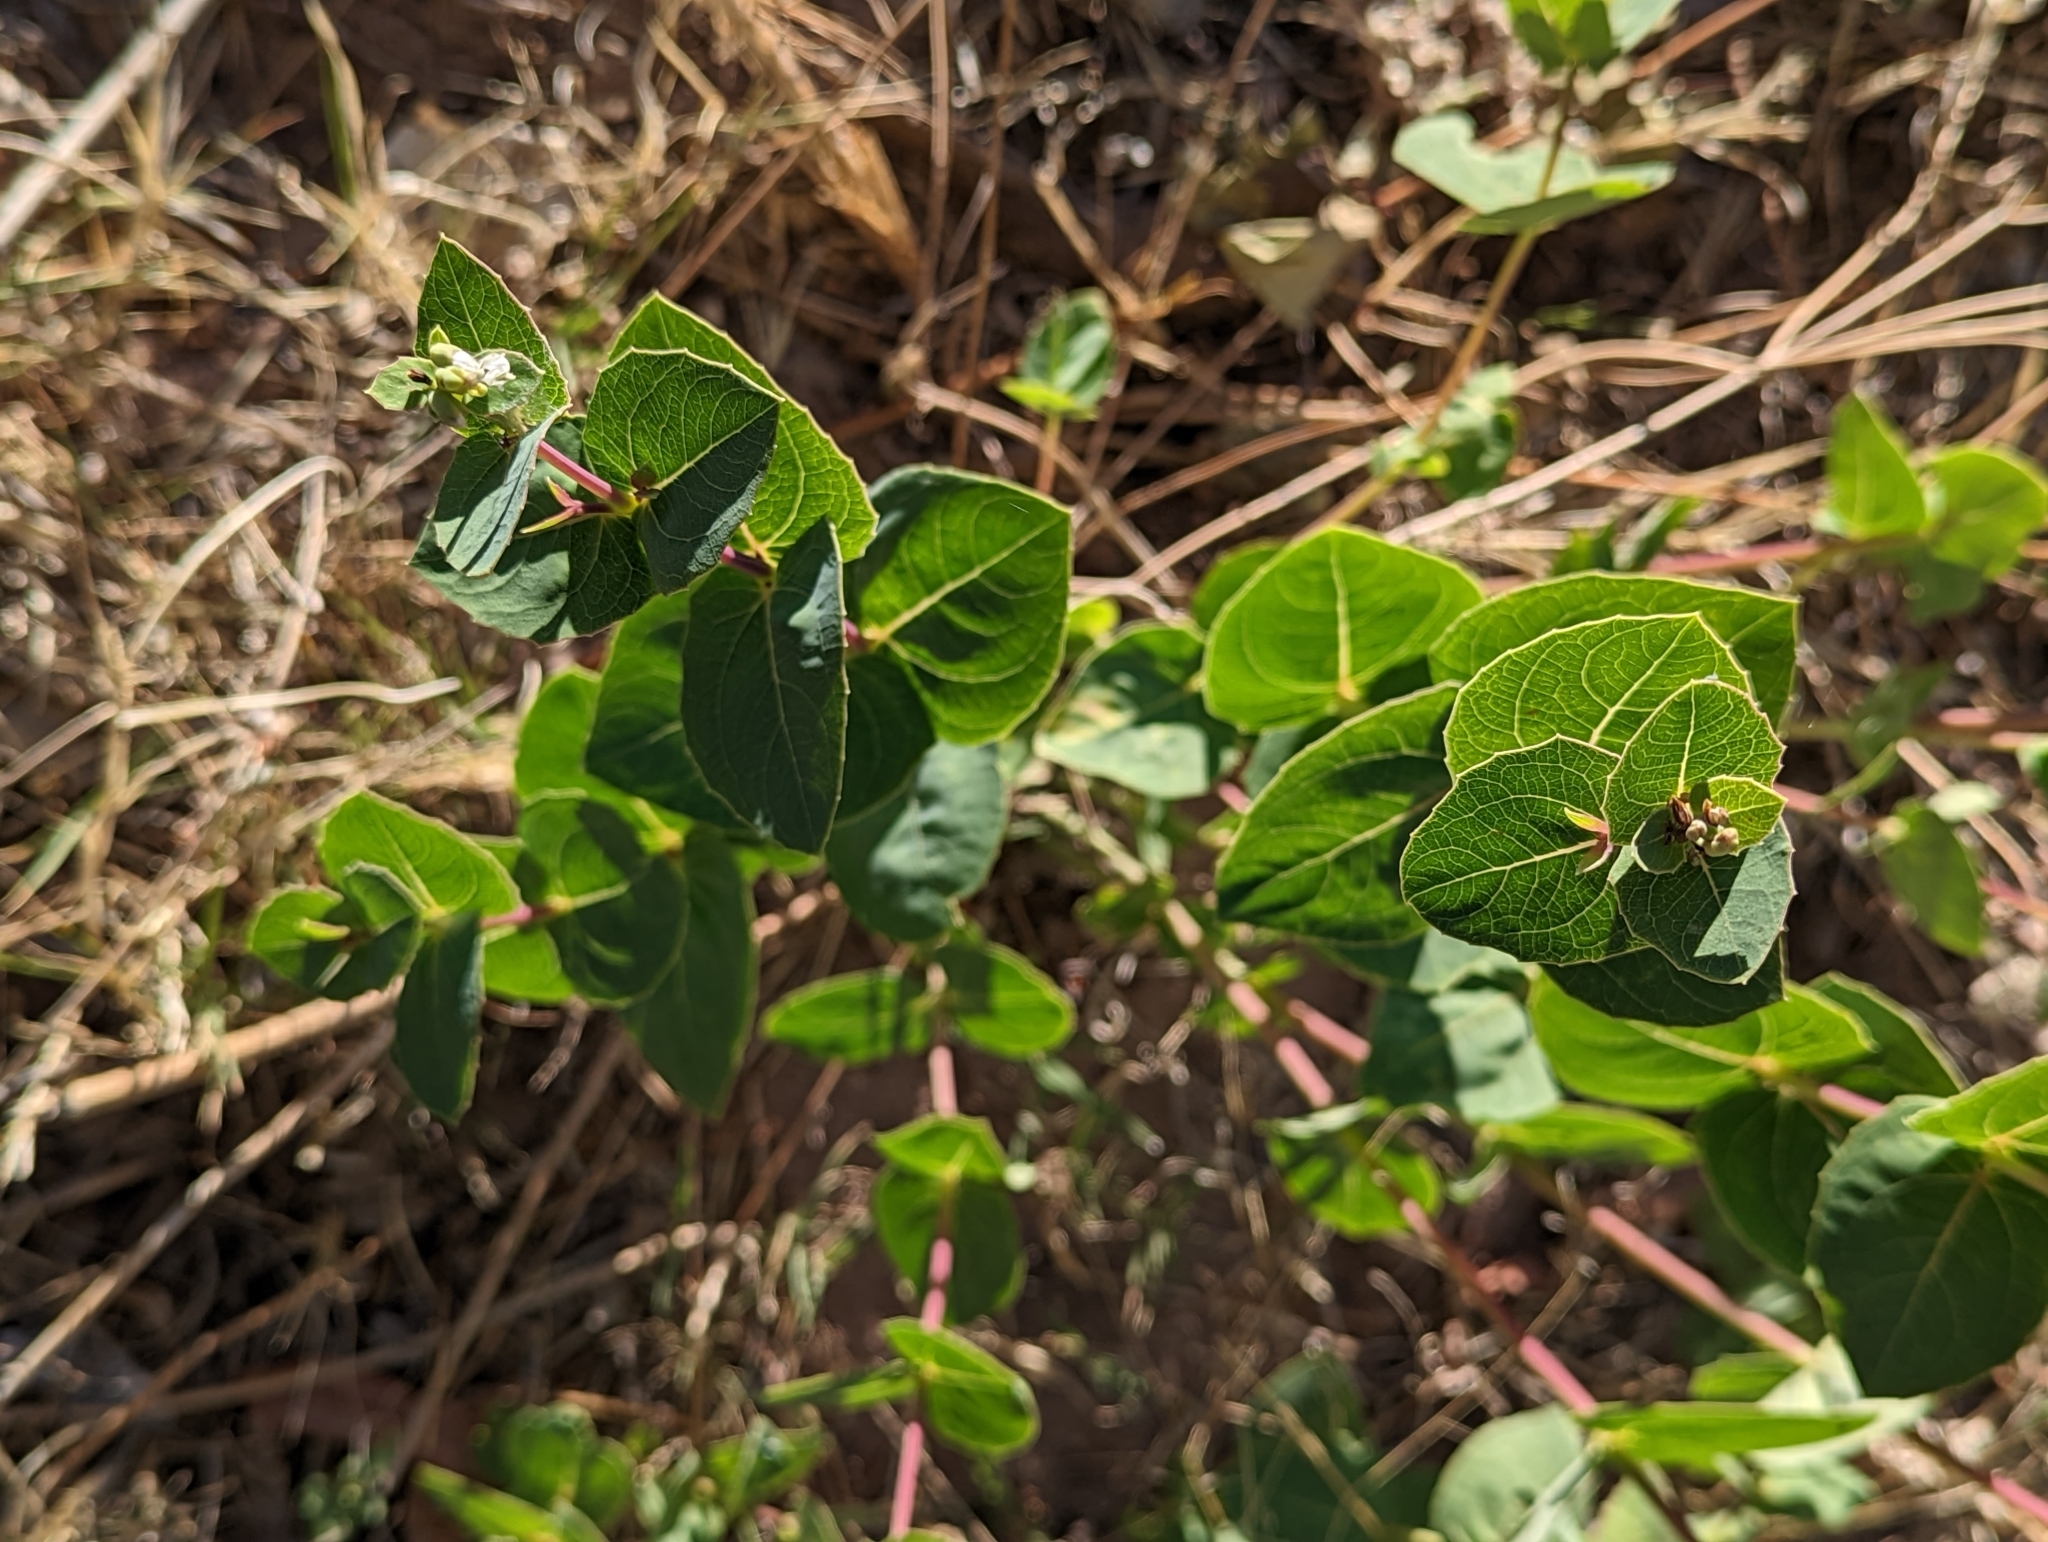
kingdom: Plantae
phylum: Tracheophyta
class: Magnoliopsida
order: Asterales
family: Asteraceae
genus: Guardiola
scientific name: Guardiola platyphylla
